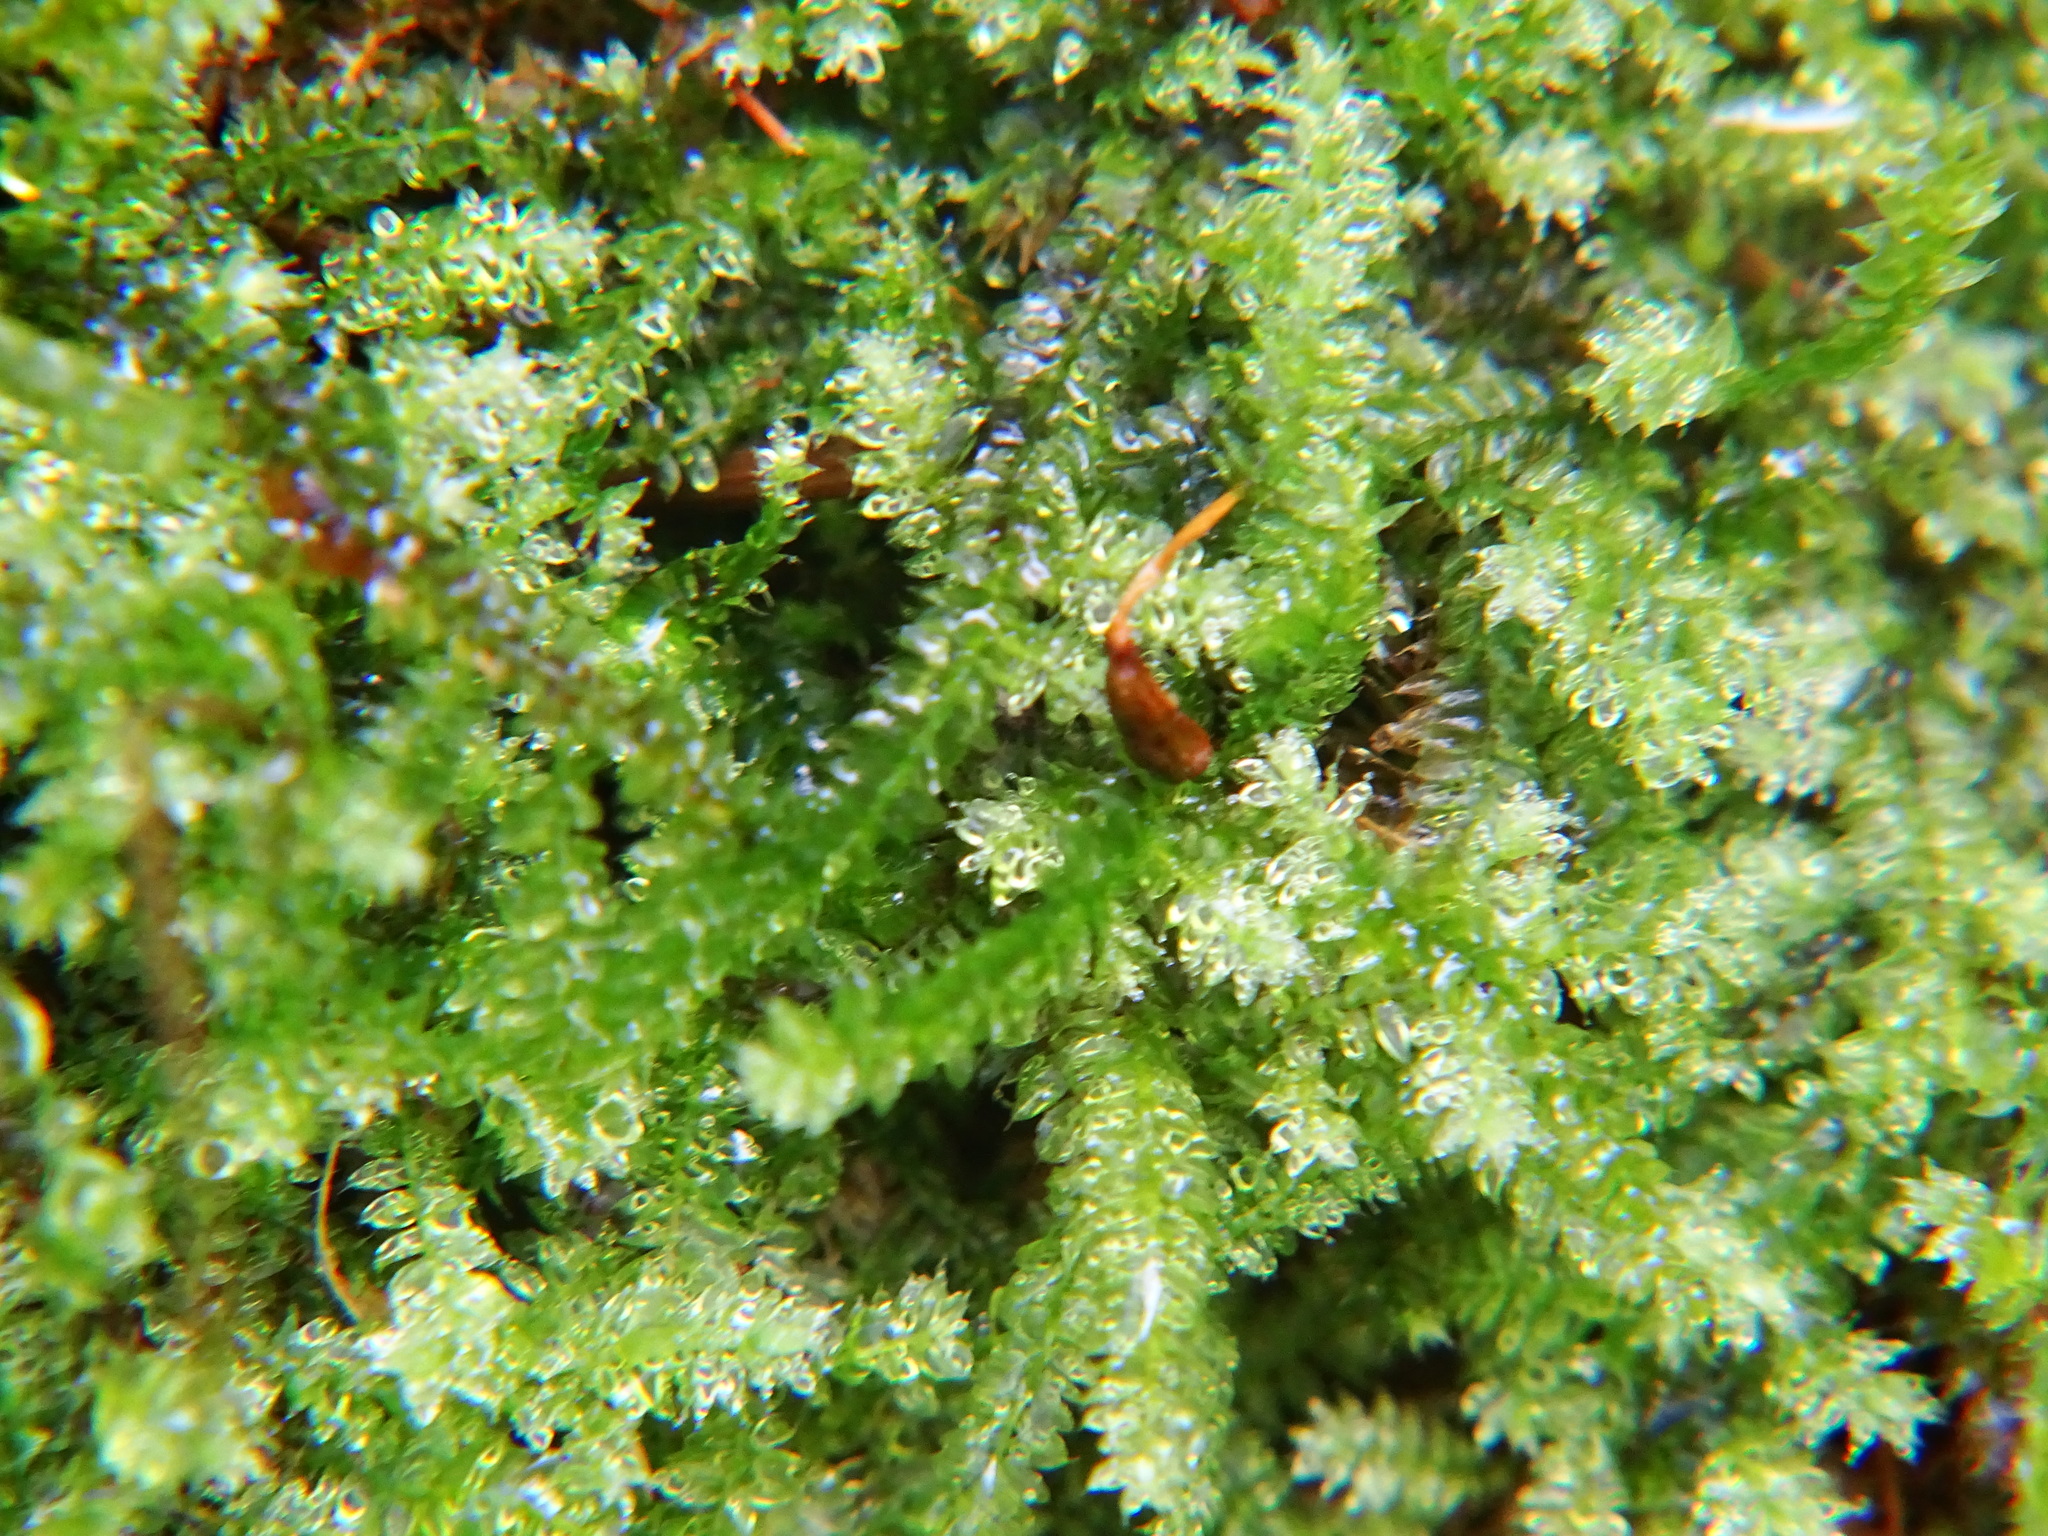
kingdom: Plantae
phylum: Bryophyta
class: Bryopsida
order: Hypnodendrales
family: Racopilaceae
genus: Racopilum
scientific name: Racopilum cuspidigerum
